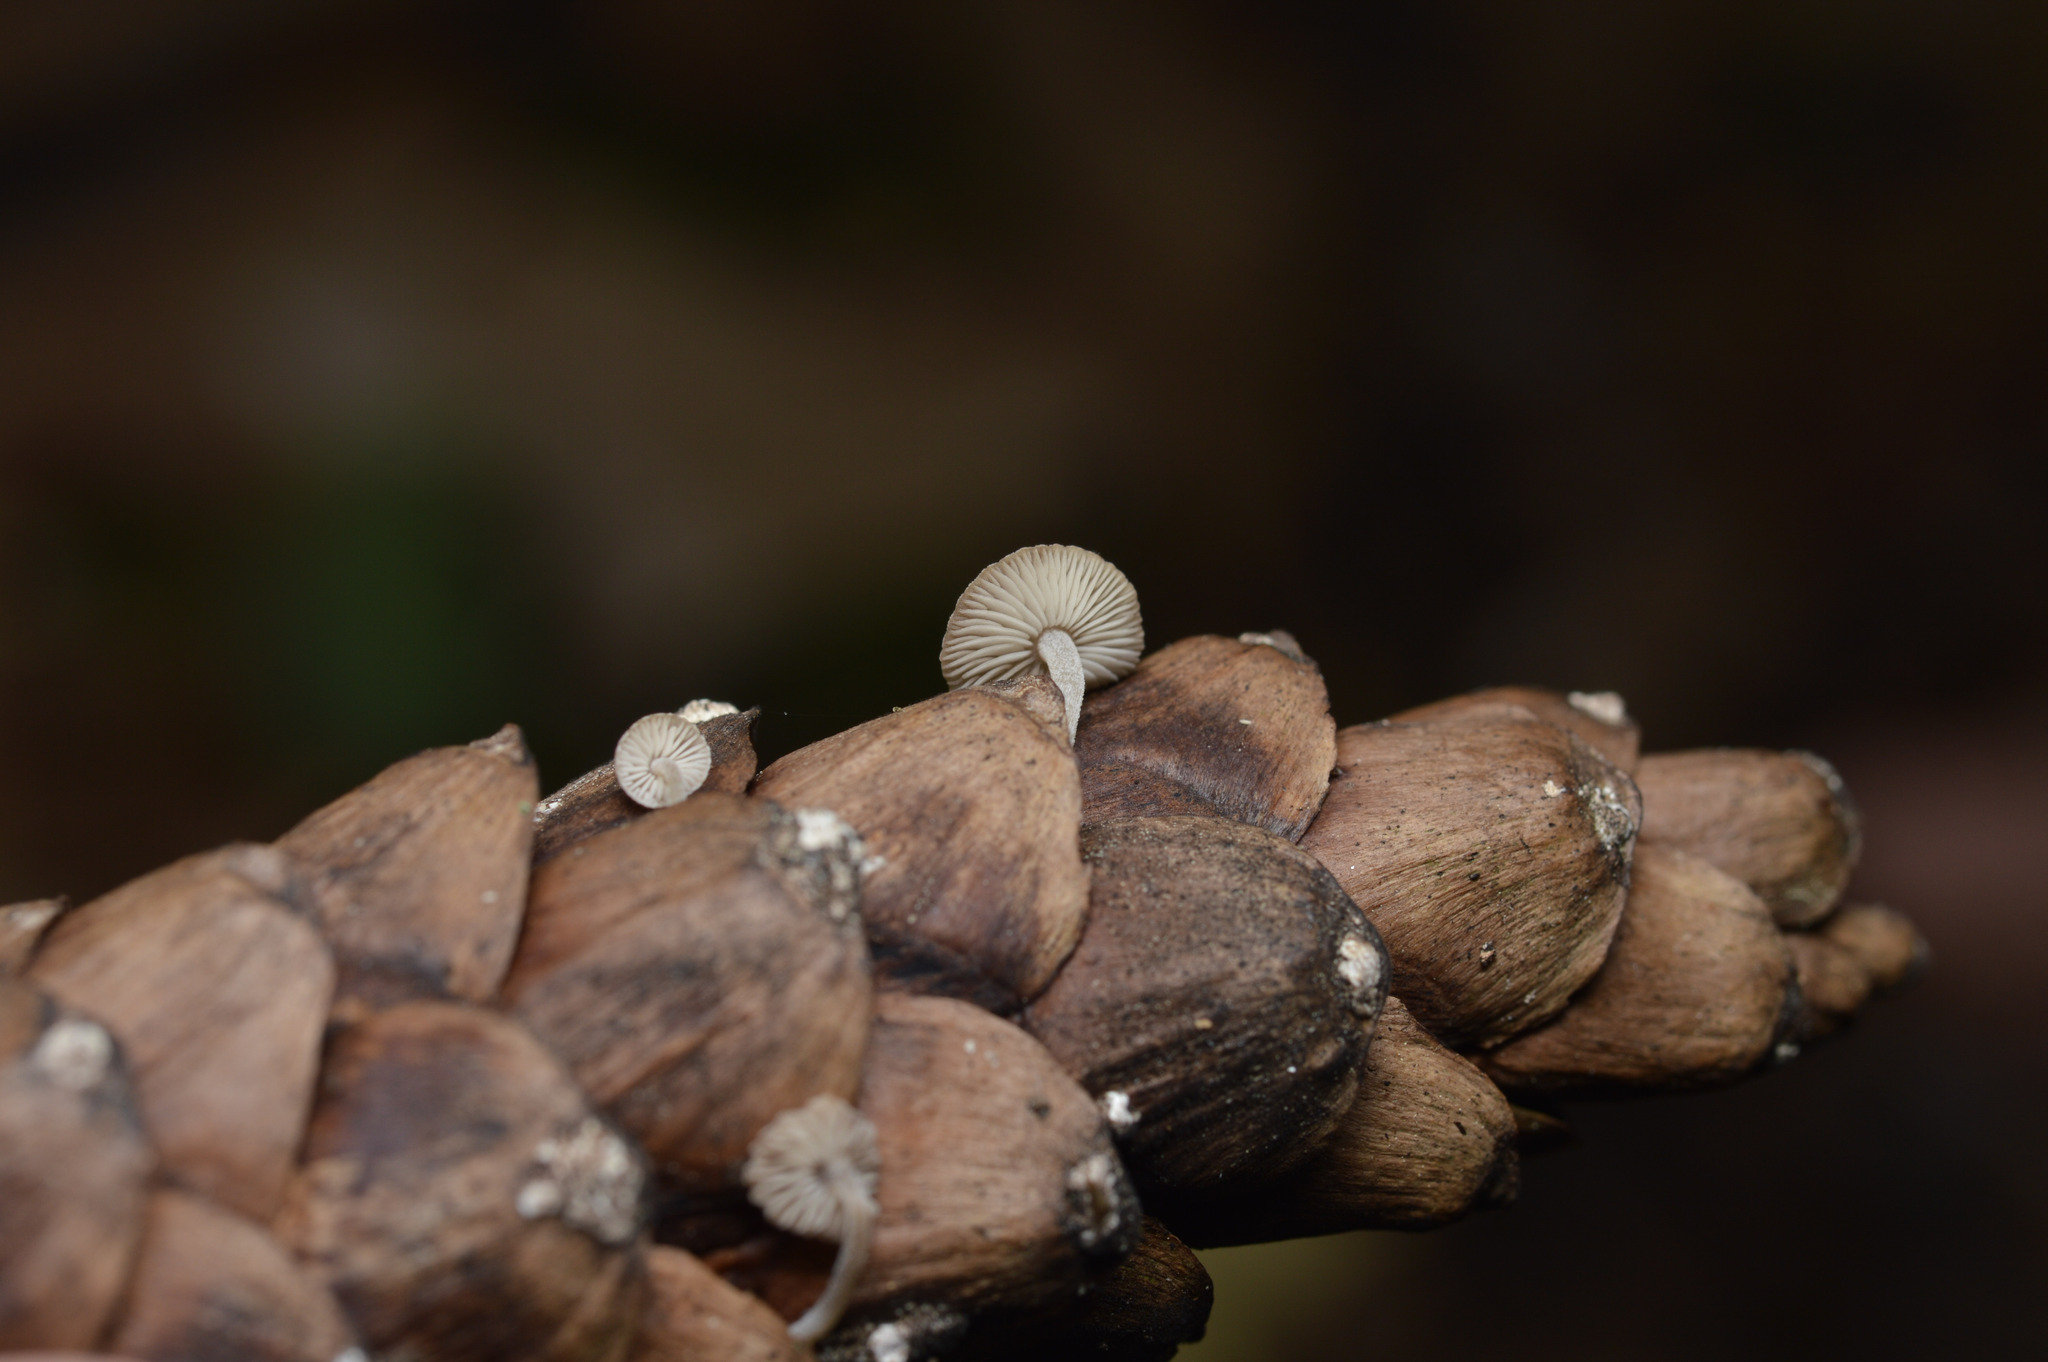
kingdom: Fungi
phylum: Basidiomycota
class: Agaricomycetes
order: Agaricales
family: Marasmiaceae
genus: Baeospora
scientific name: Baeospora myosura
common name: Conifercone cap
